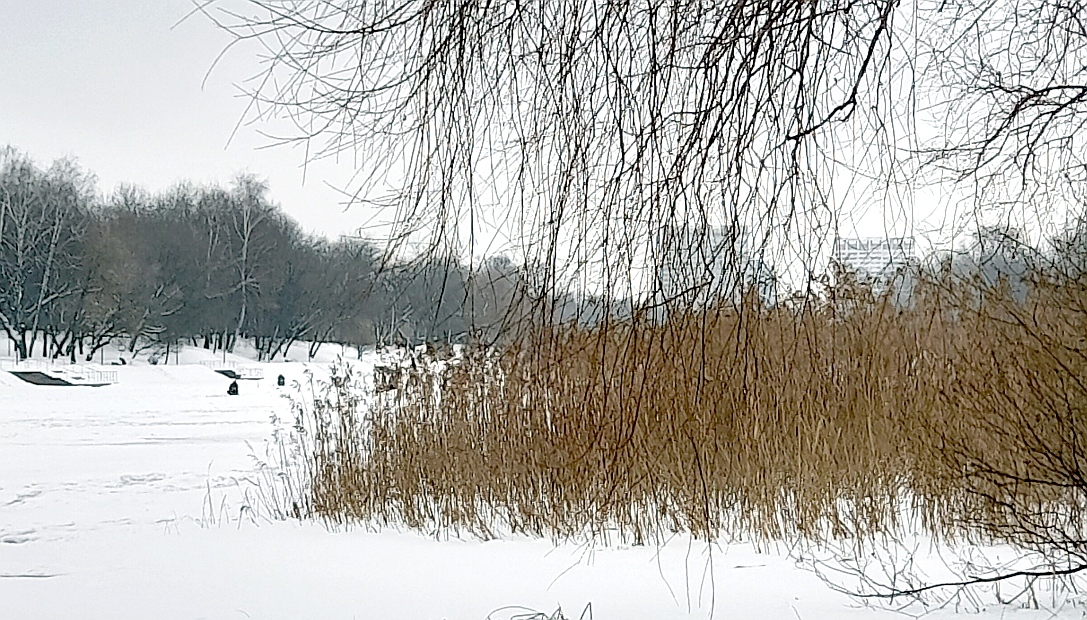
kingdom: Plantae
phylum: Tracheophyta
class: Liliopsida
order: Poales
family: Poaceae
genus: Phragmites
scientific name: Phragmites australis
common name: Common reed
